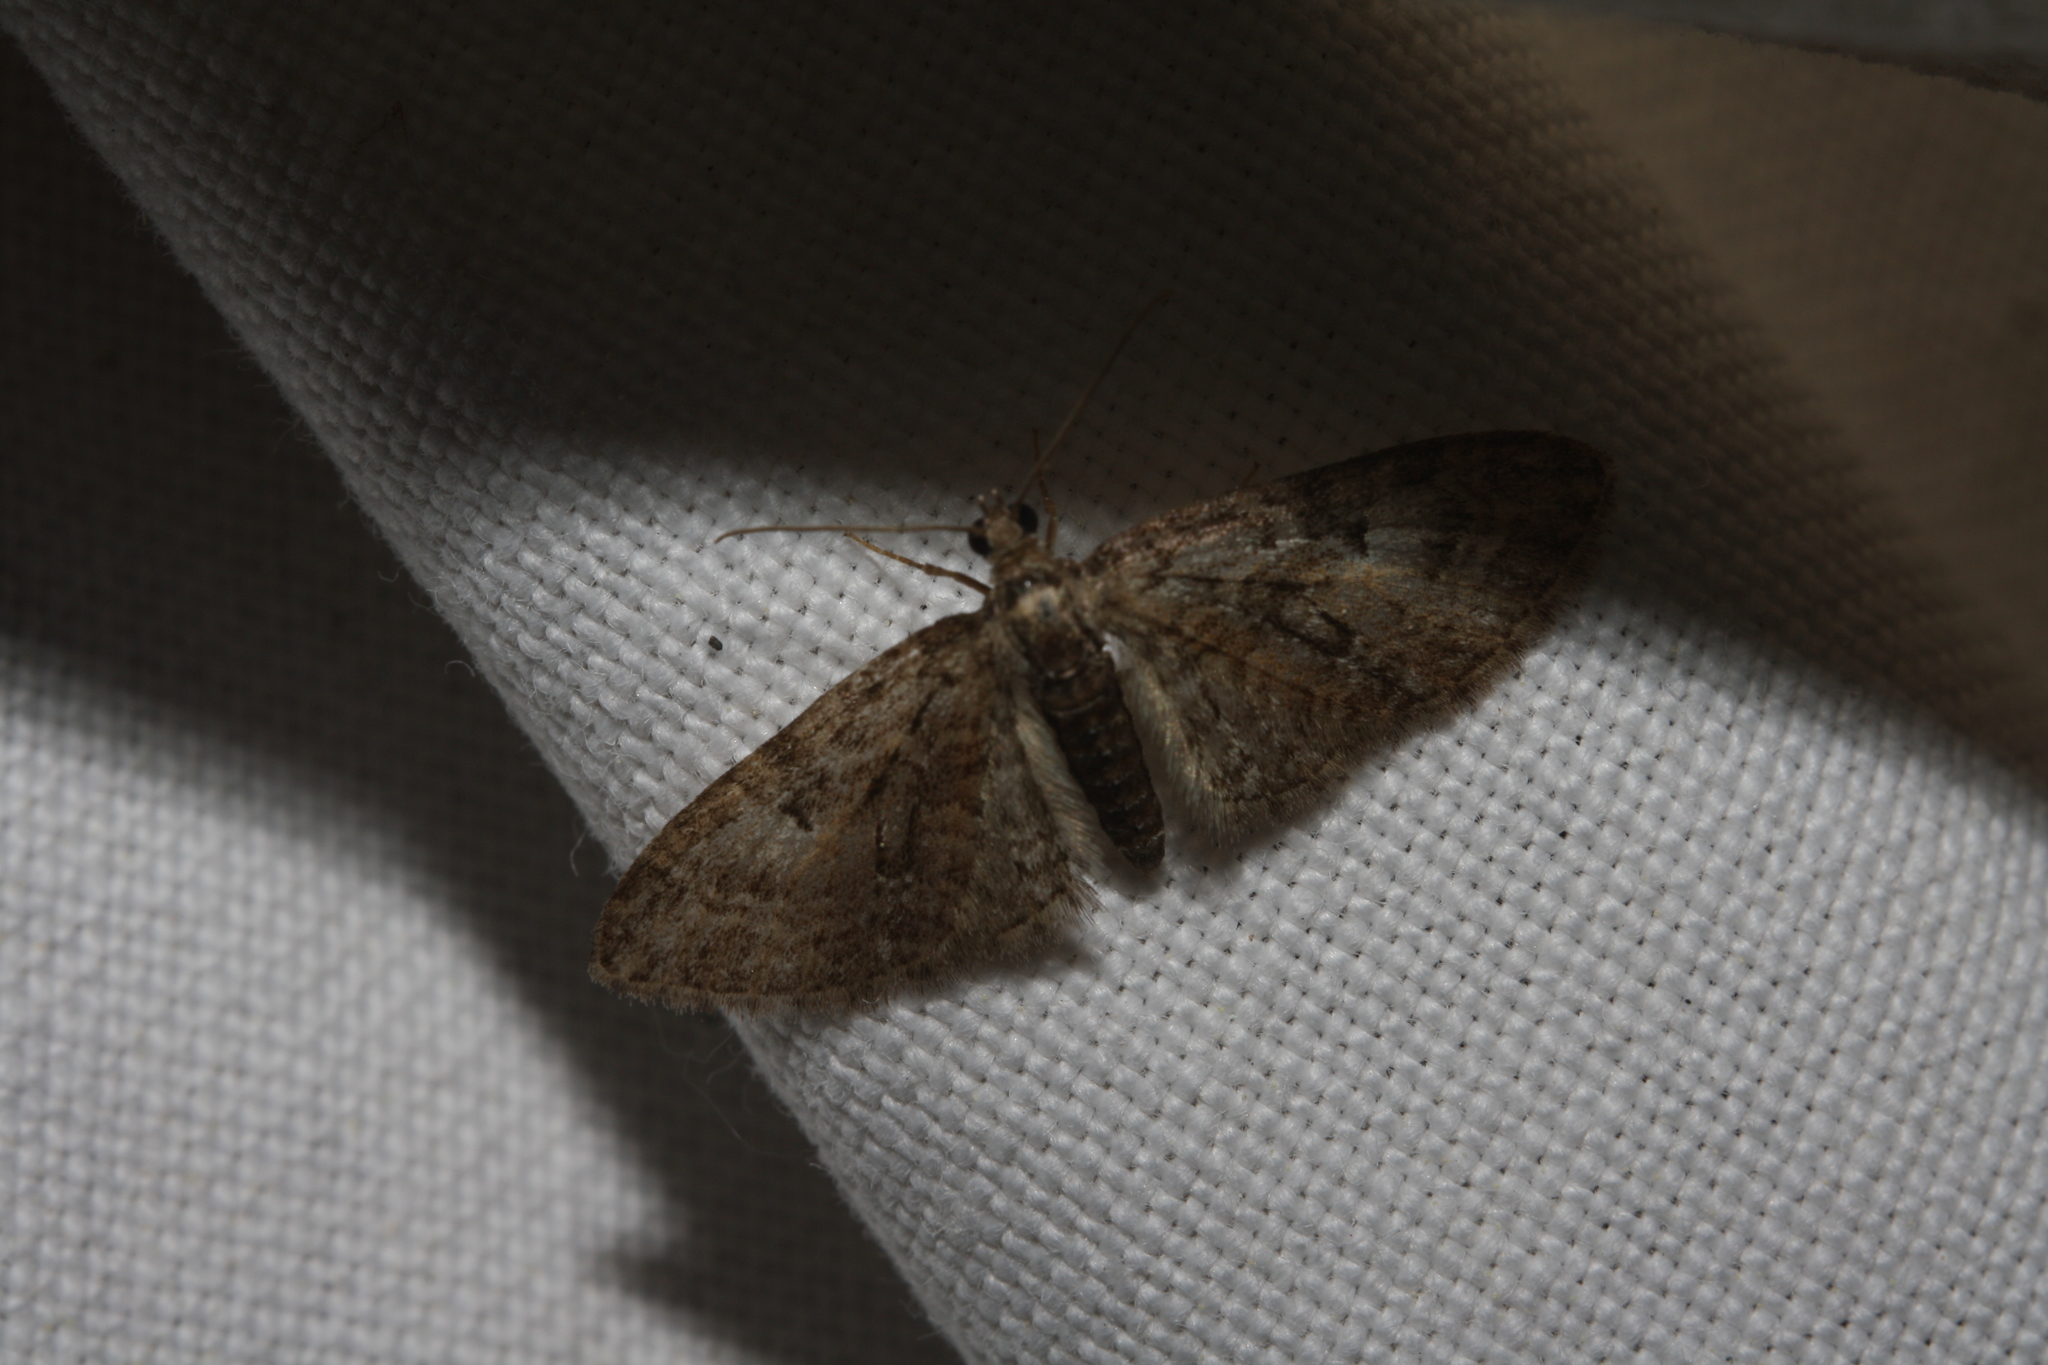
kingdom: Animalia
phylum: Arthropoda
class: Insecta
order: Lepidoptera
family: Geometridae
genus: Eupithecia
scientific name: Eupithecia abbreviata
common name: Brindled pug
